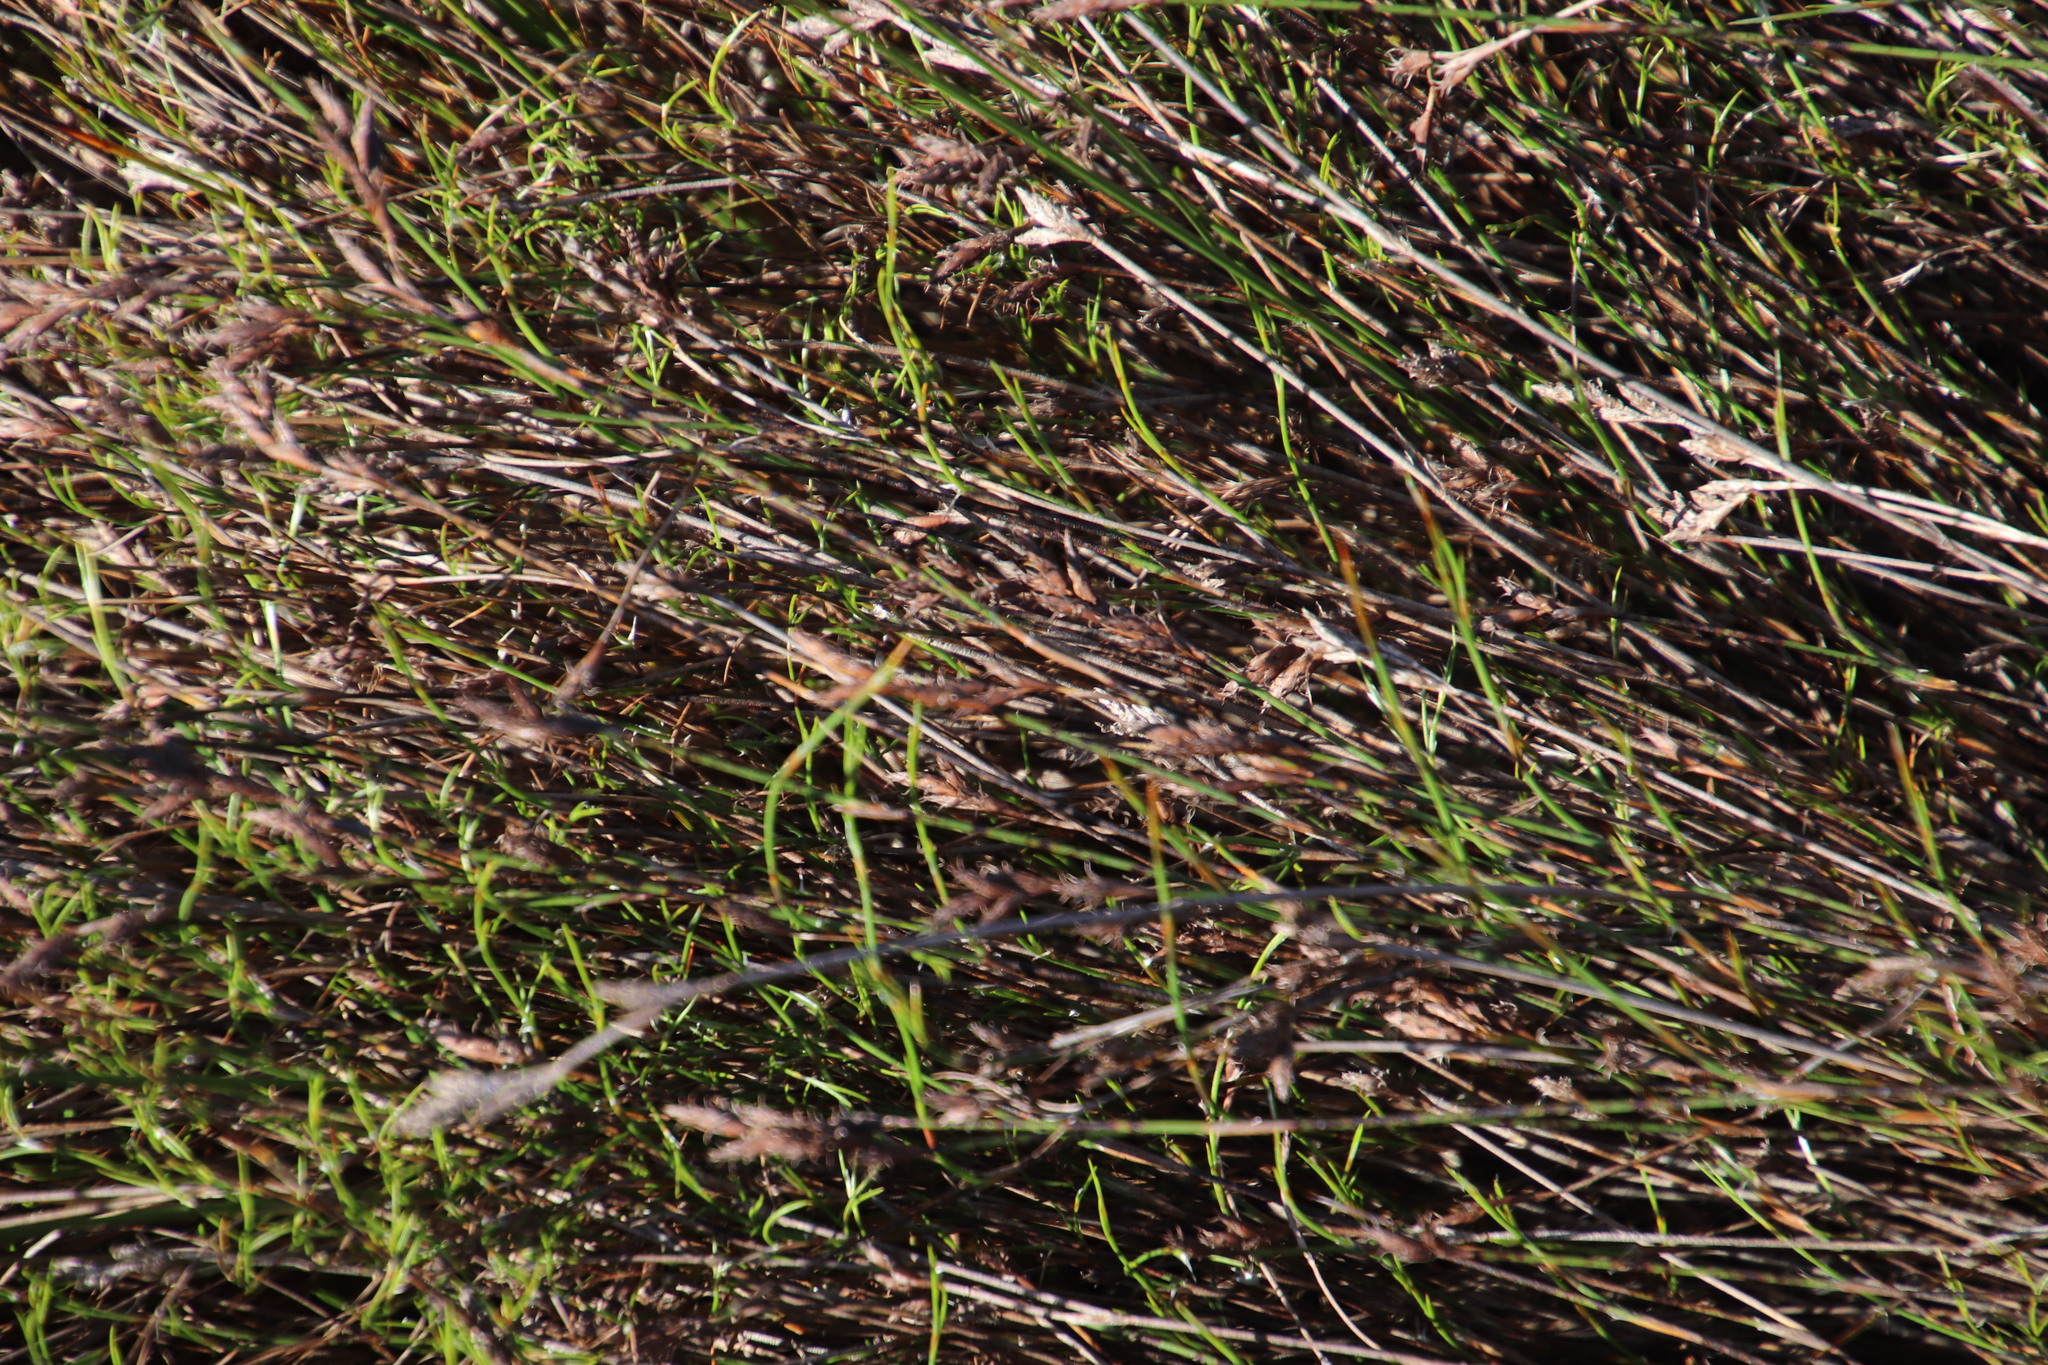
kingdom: Plantae
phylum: Tracheophyta
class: Liliopsida
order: Poales
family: Restionaceae
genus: Restio
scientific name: Restio capensis
